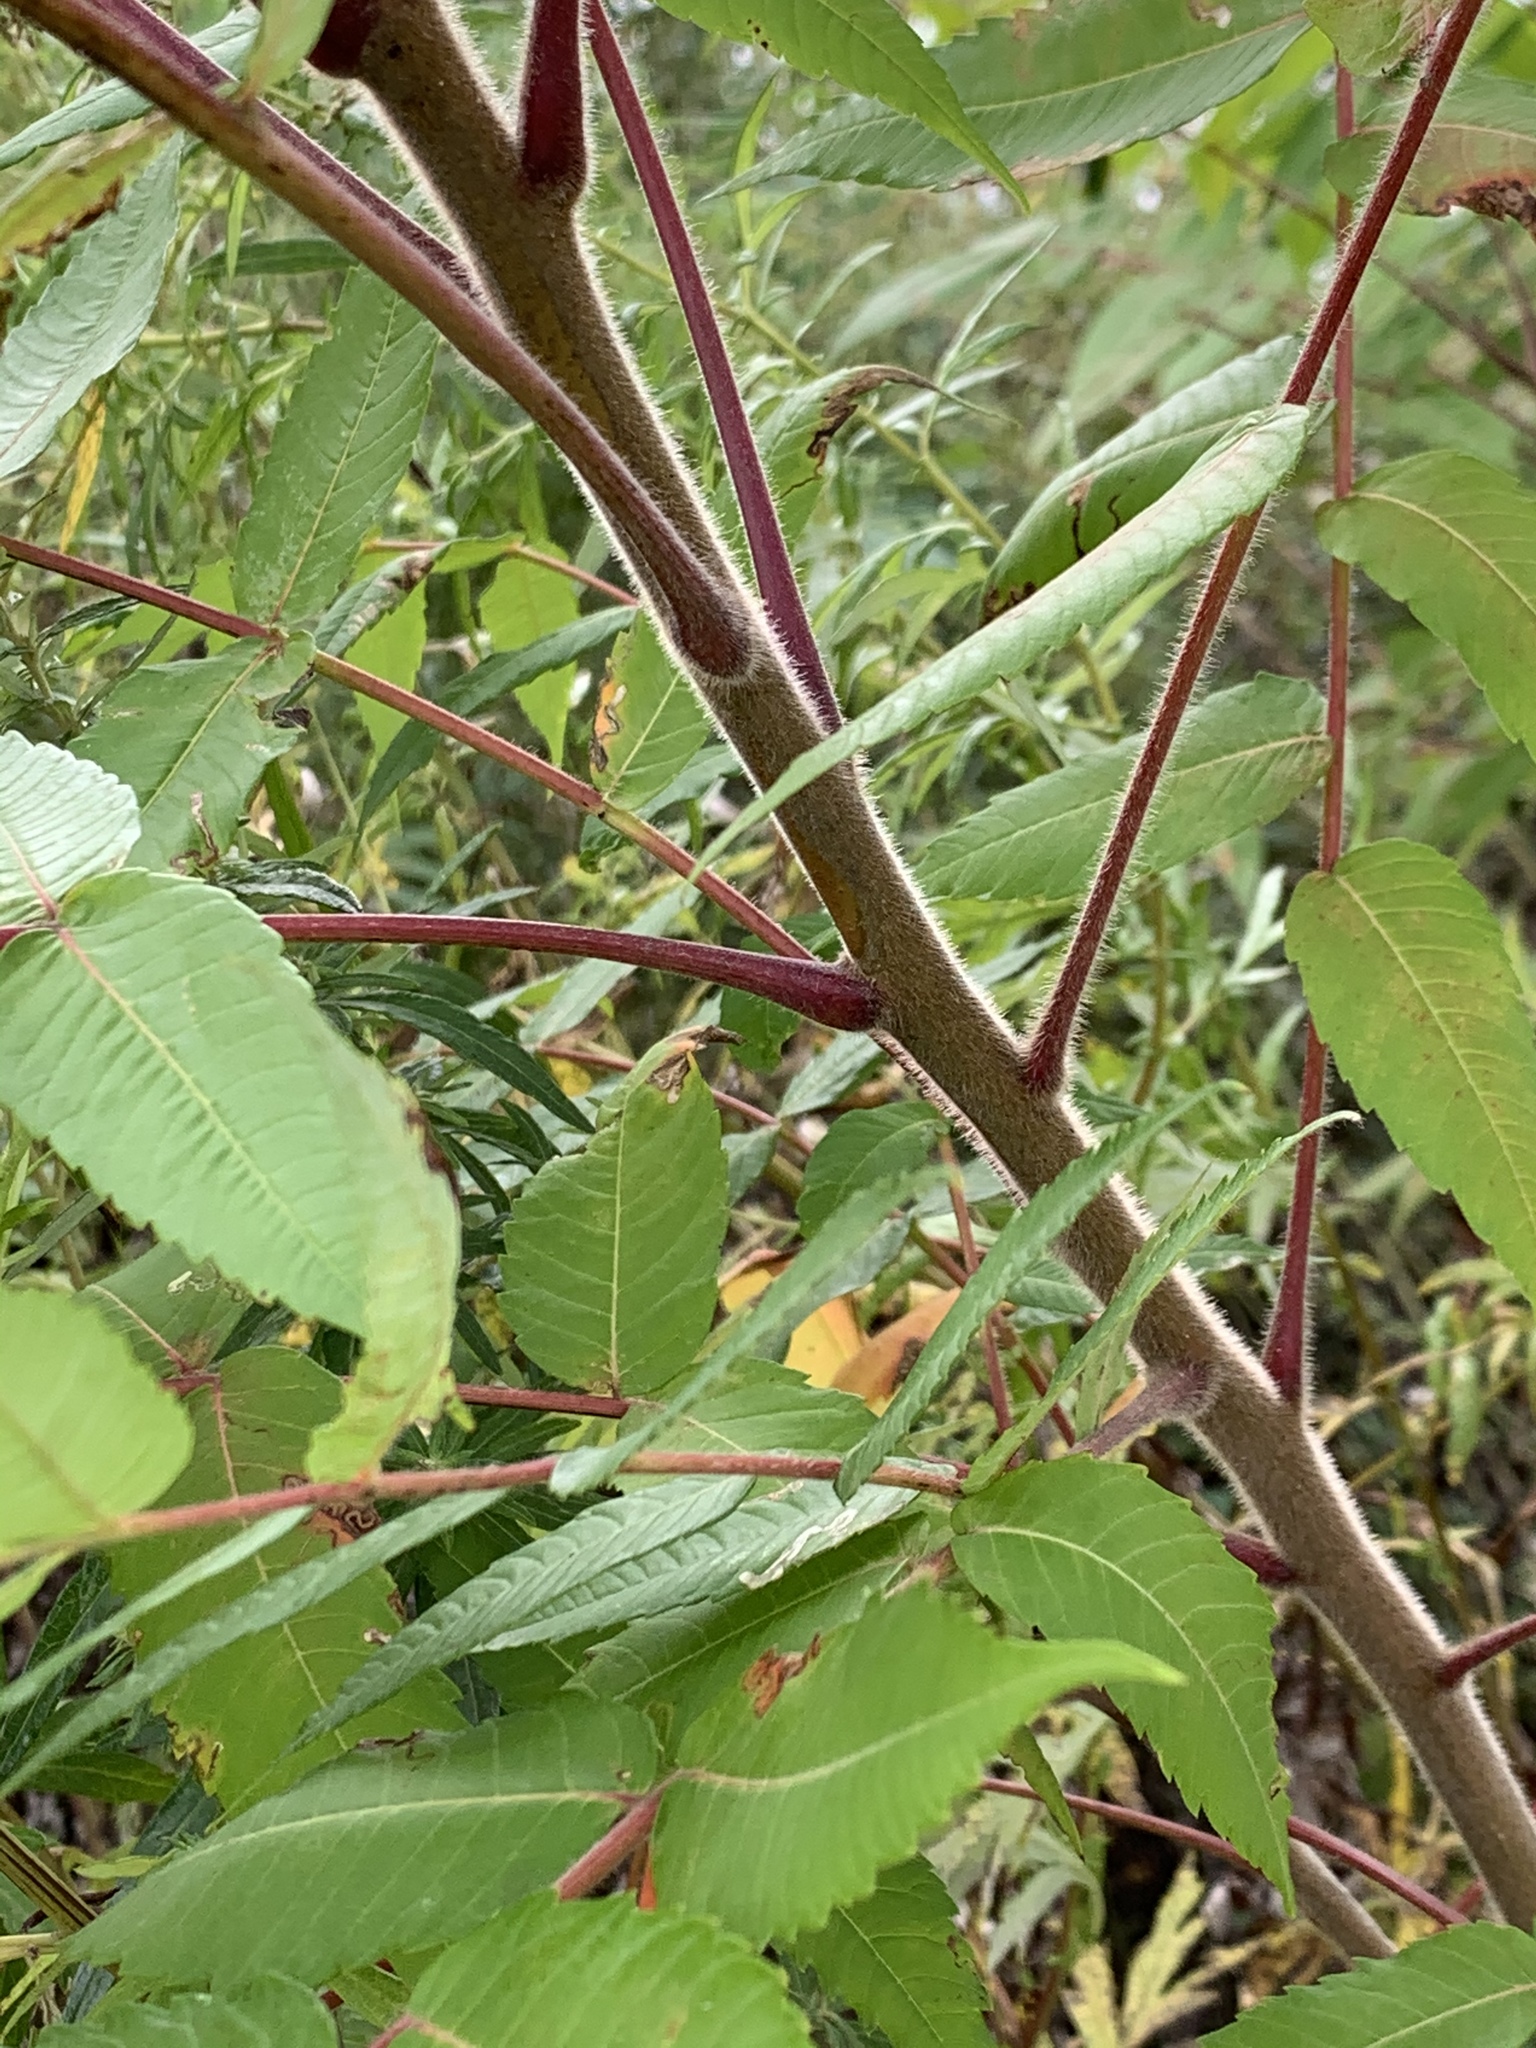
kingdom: Plantae
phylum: Tracheophyta
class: Magnoliopsida
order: Sapindales
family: Anacardiaceae
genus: Rhus
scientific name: Rhus typhina
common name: Staghorn sumac
